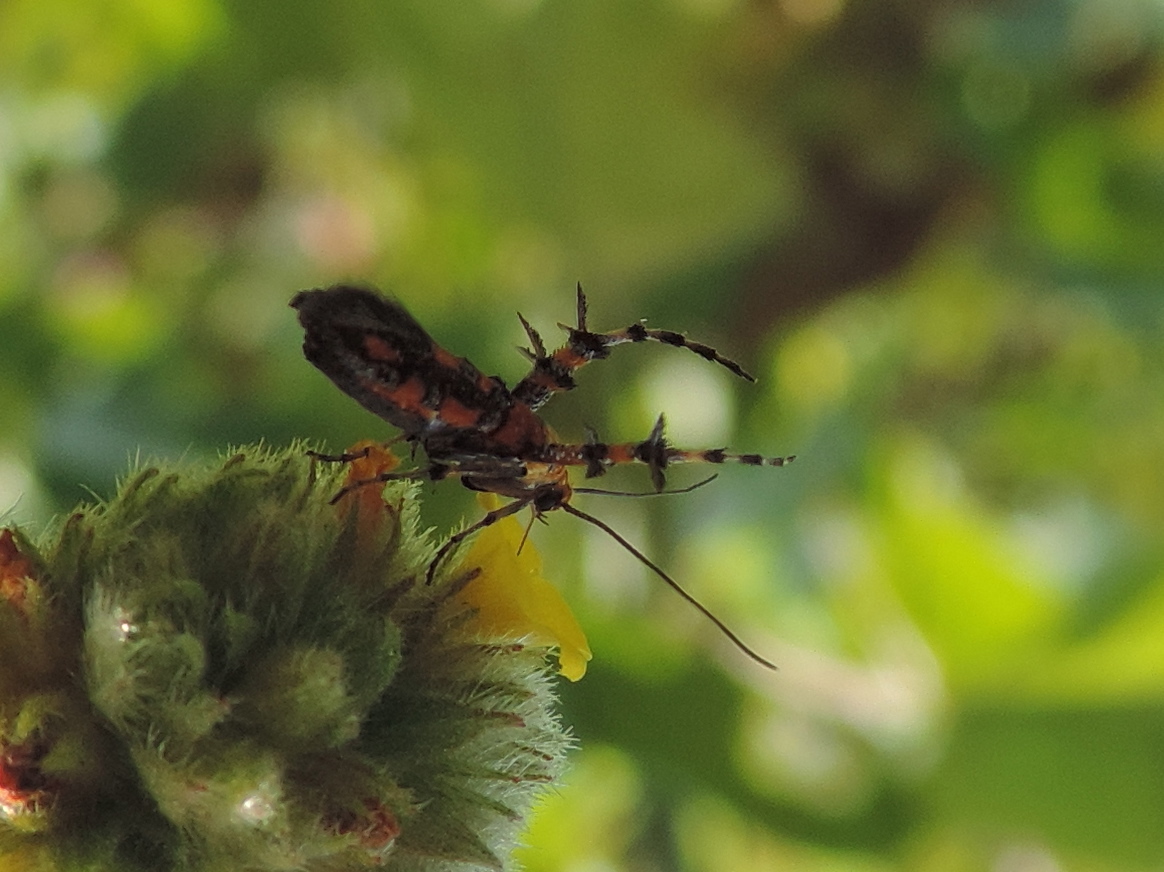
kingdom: Animalia
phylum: Arthropoda
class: Insecta
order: Lepidoptera
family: Heliodinidae
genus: Heliodines
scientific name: Heliodines
